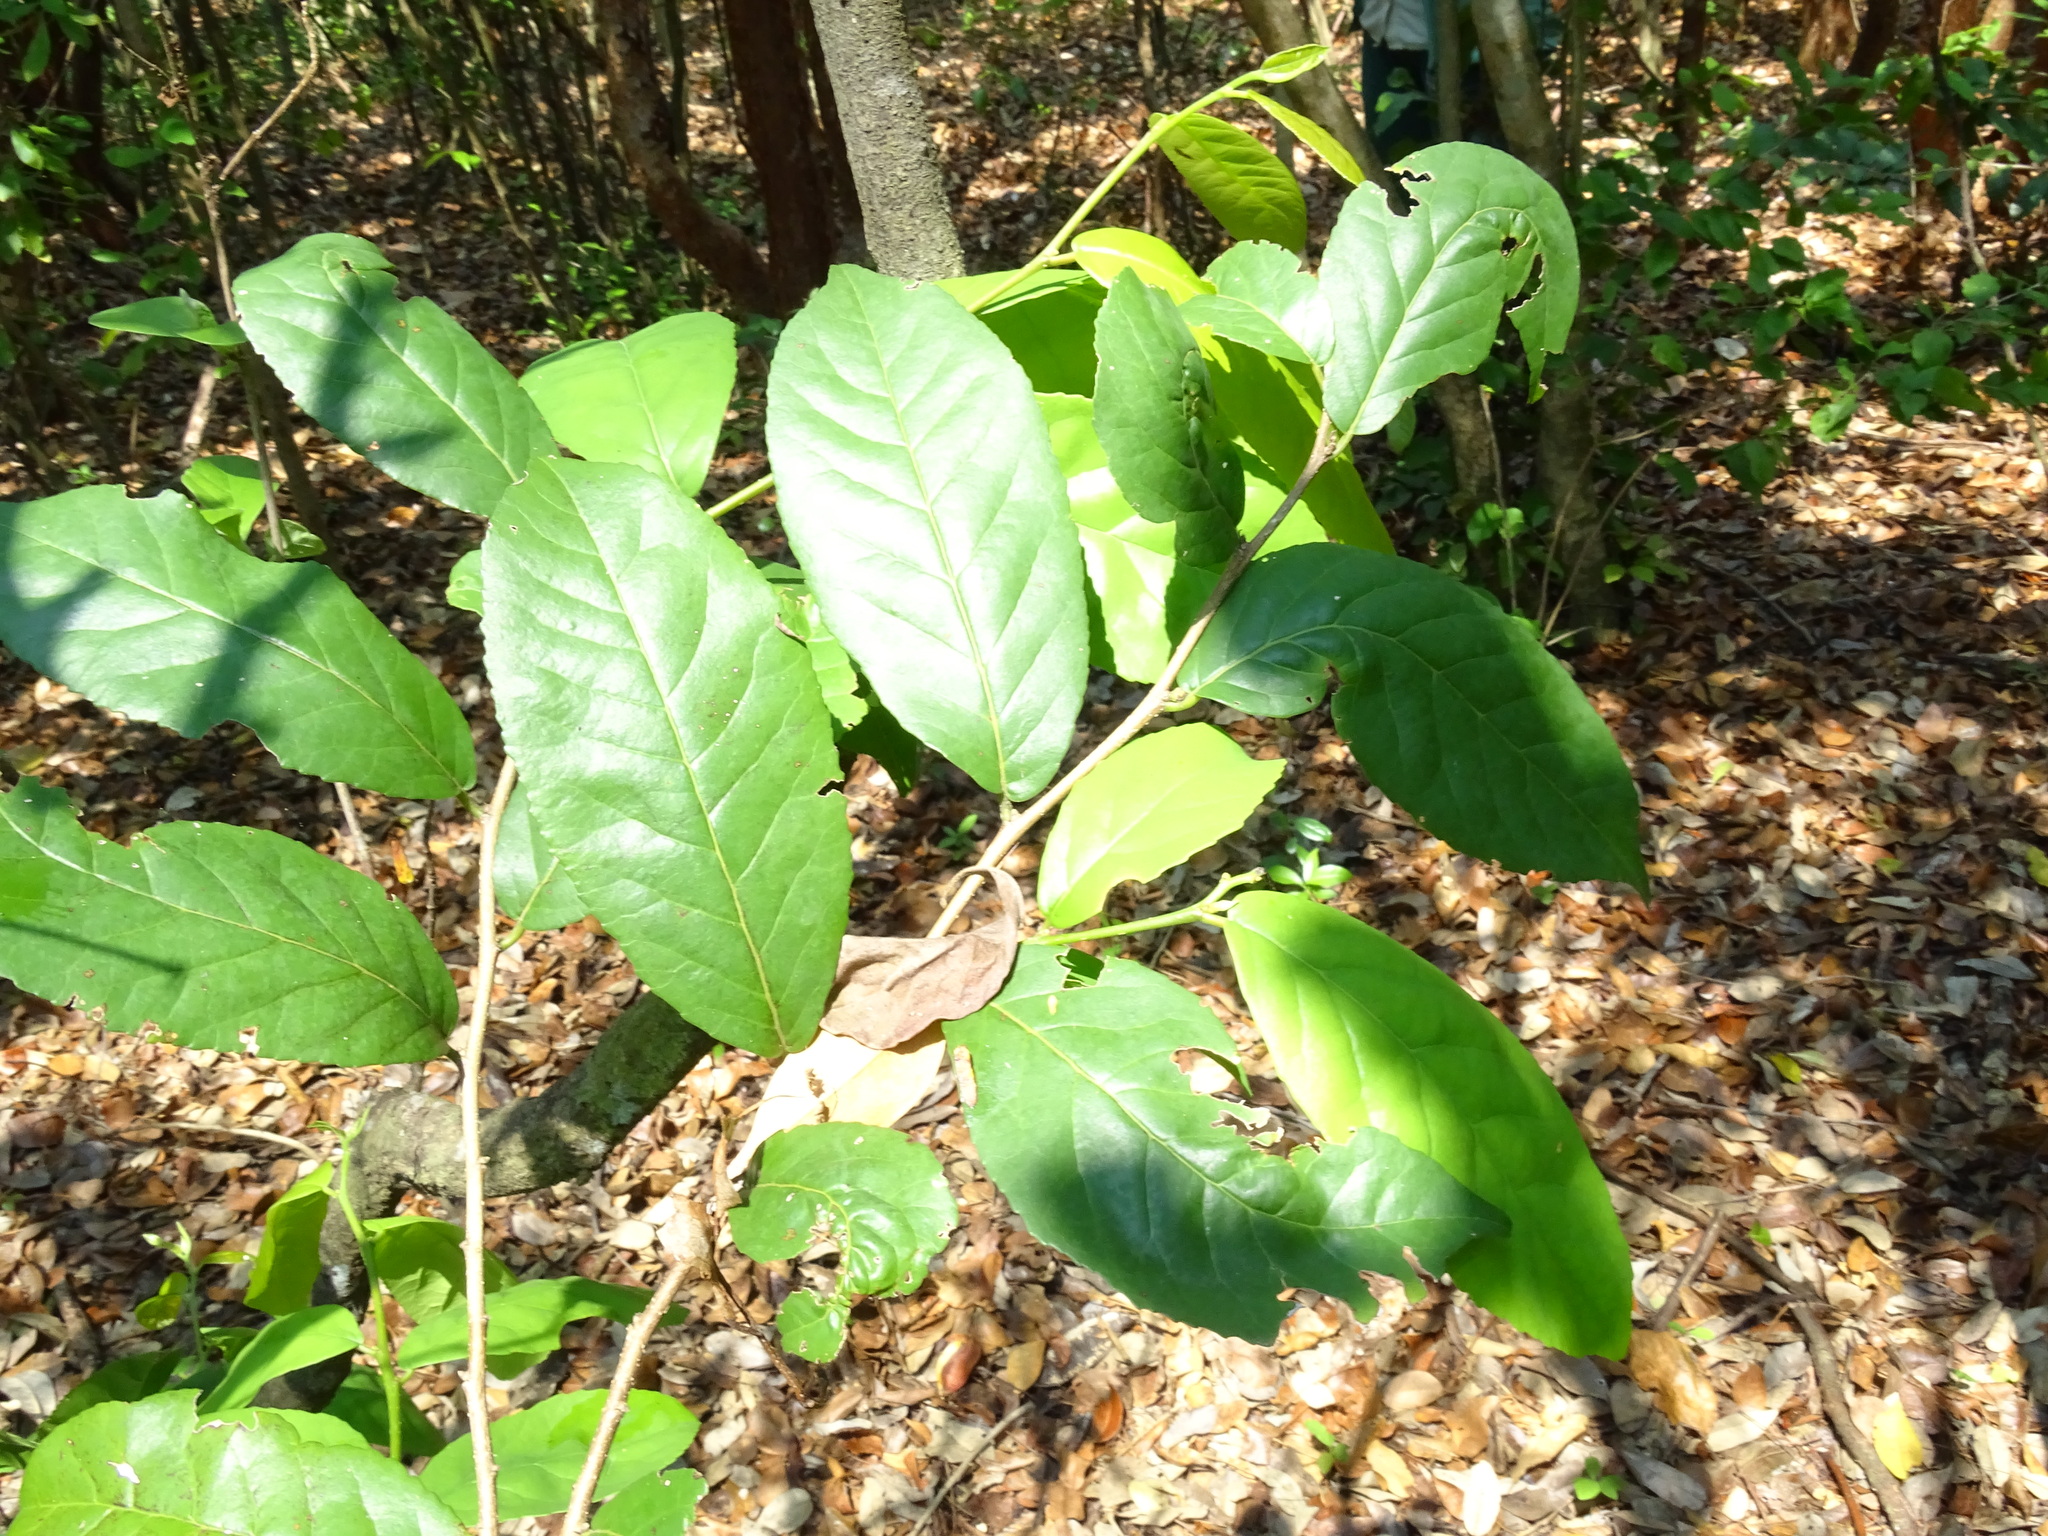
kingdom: Plantae
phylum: Tracheophyta
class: Magnoliopsida
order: Malpighiales
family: Salicaceae
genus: Casearia
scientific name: Casearia corymbosa
